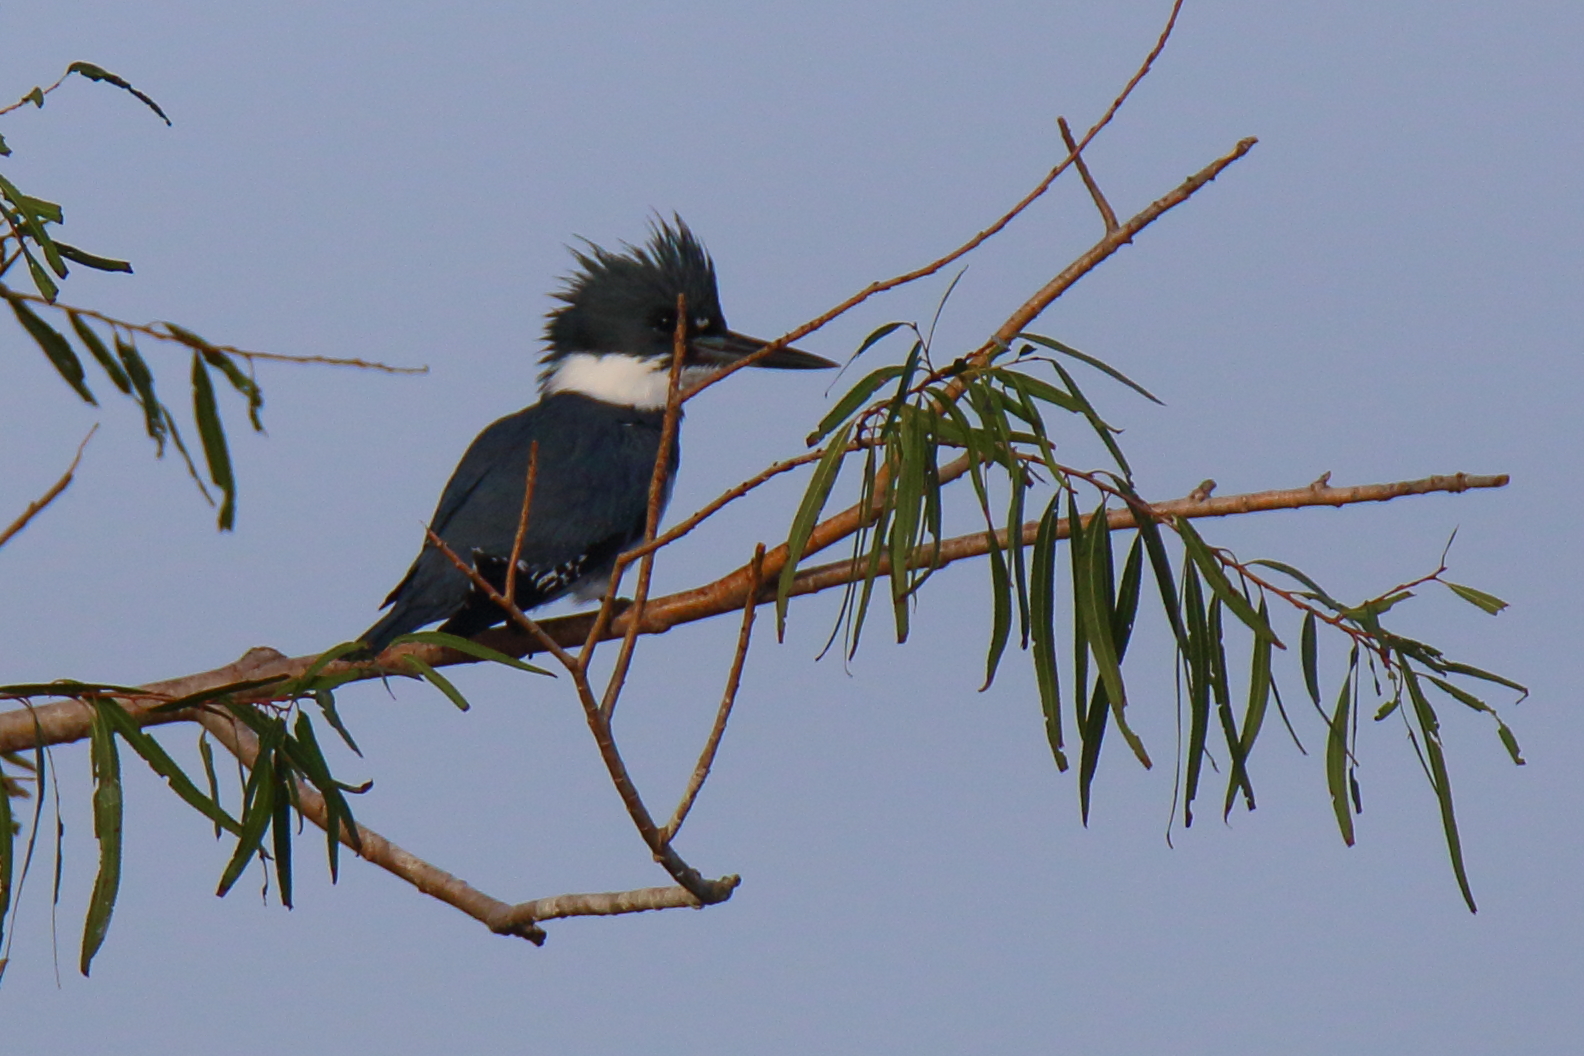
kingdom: Animalia
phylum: Chordata
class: Aves
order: Coraciiformes
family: Alcedinidae
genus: Megaceryle
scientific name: Megaceryle alcyon
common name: Belted kingfisher
